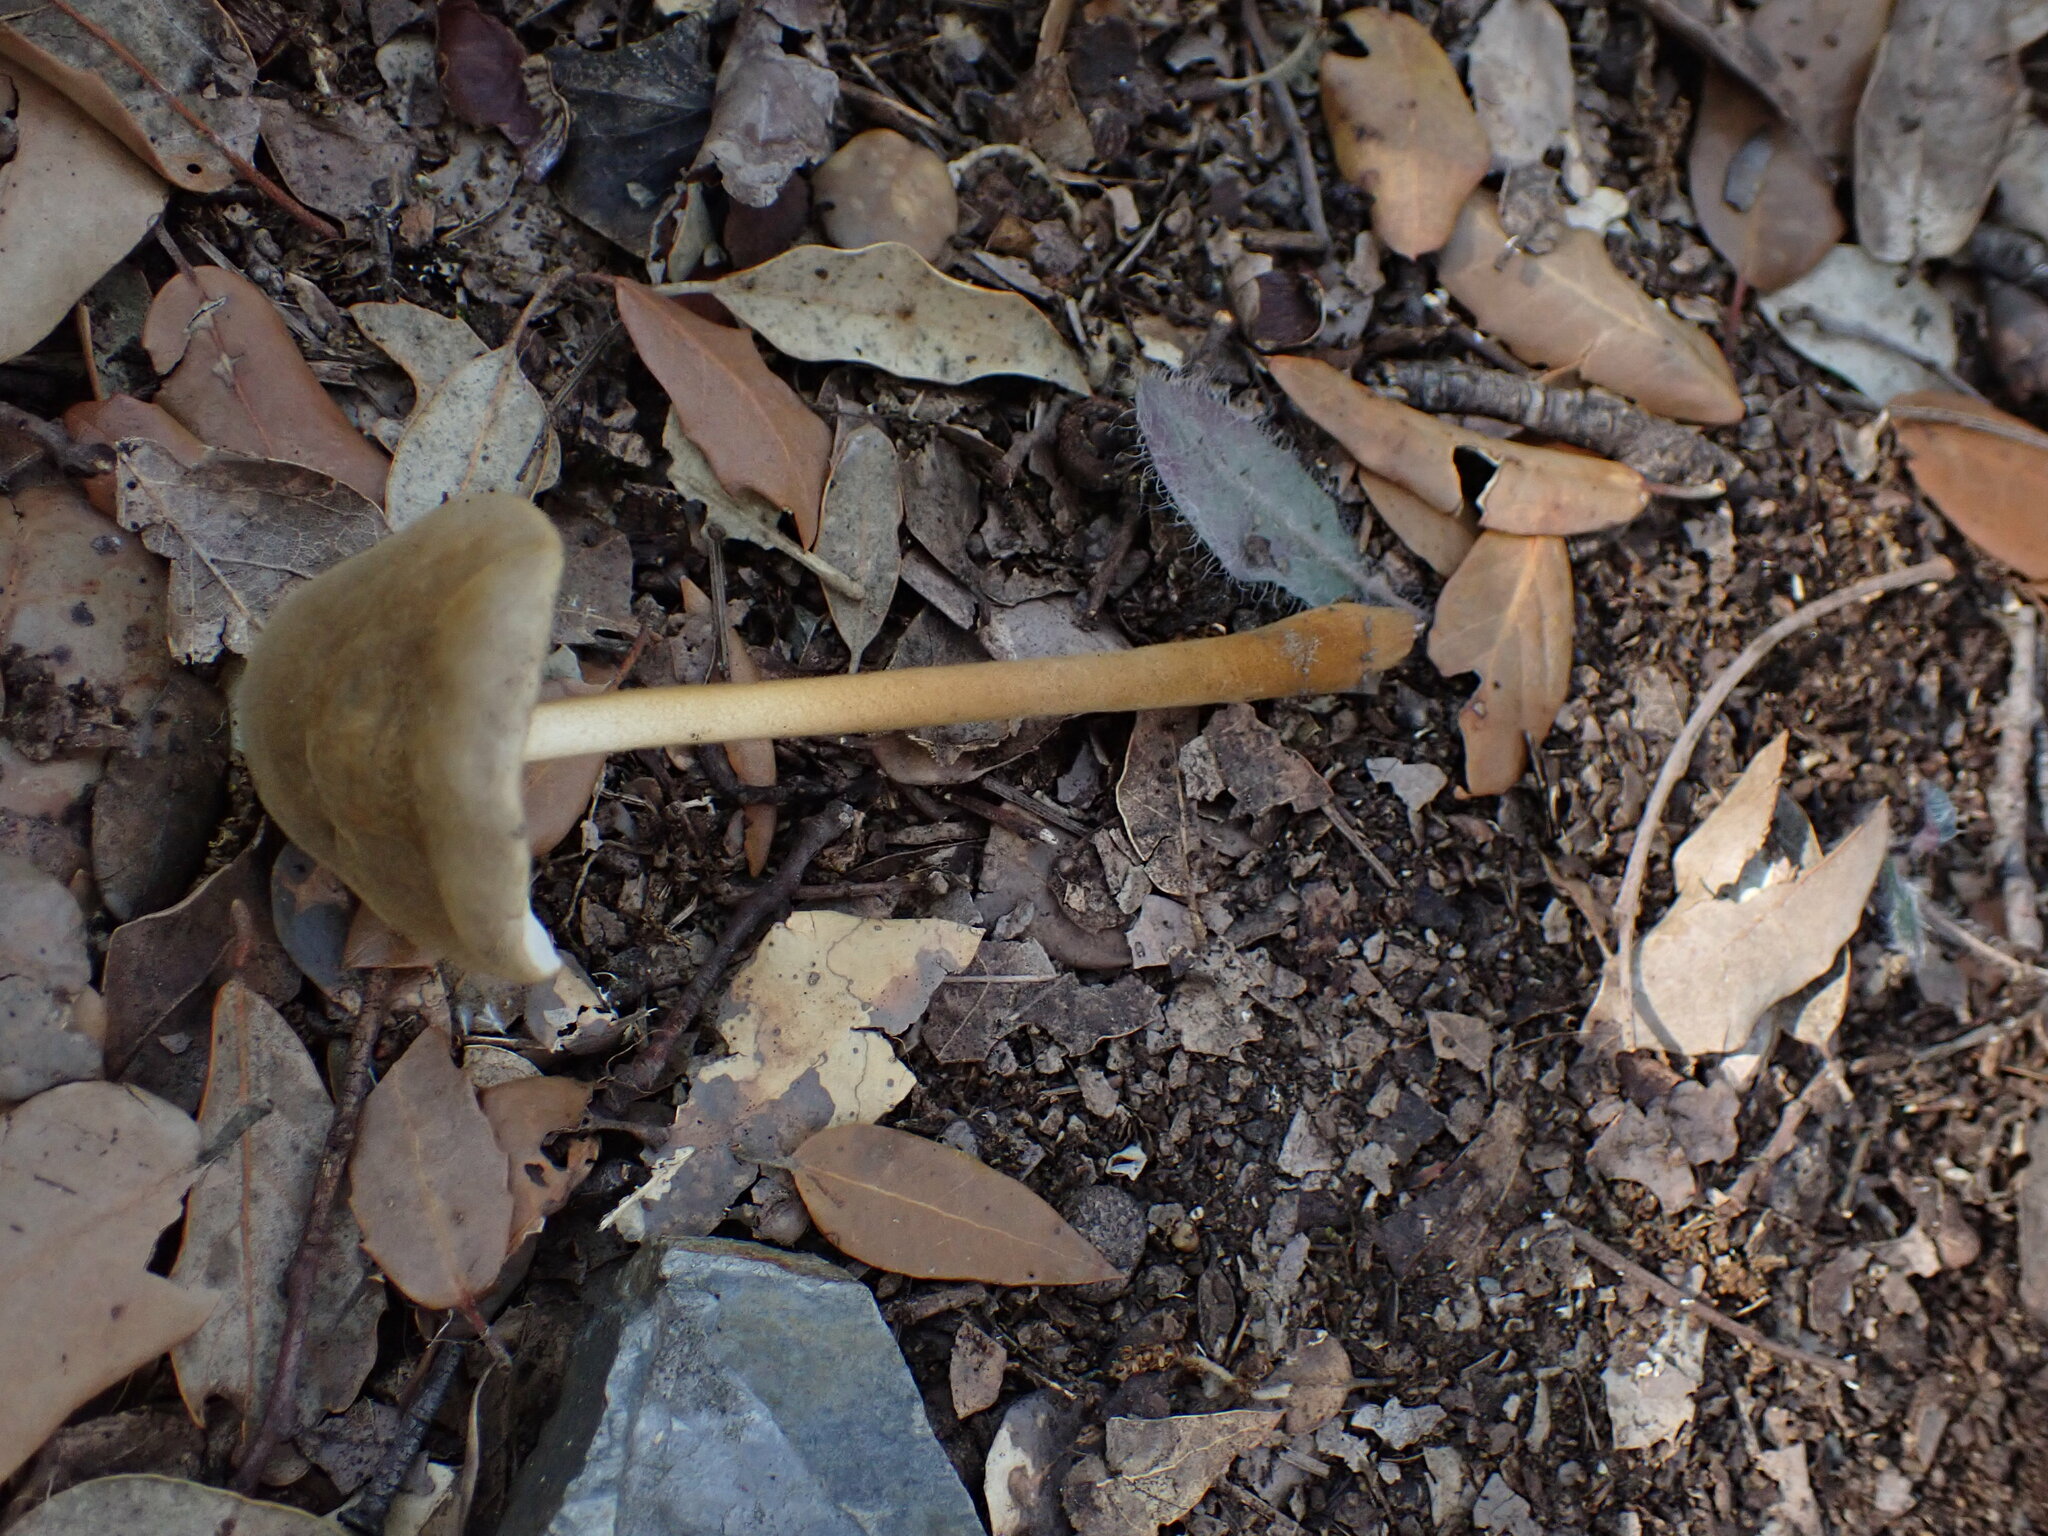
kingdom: Fungi
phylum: Basidiomycota
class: Agaricomycetes
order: Agaricales
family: Physalacriaceae
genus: Xerula
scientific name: Xerula pudens
